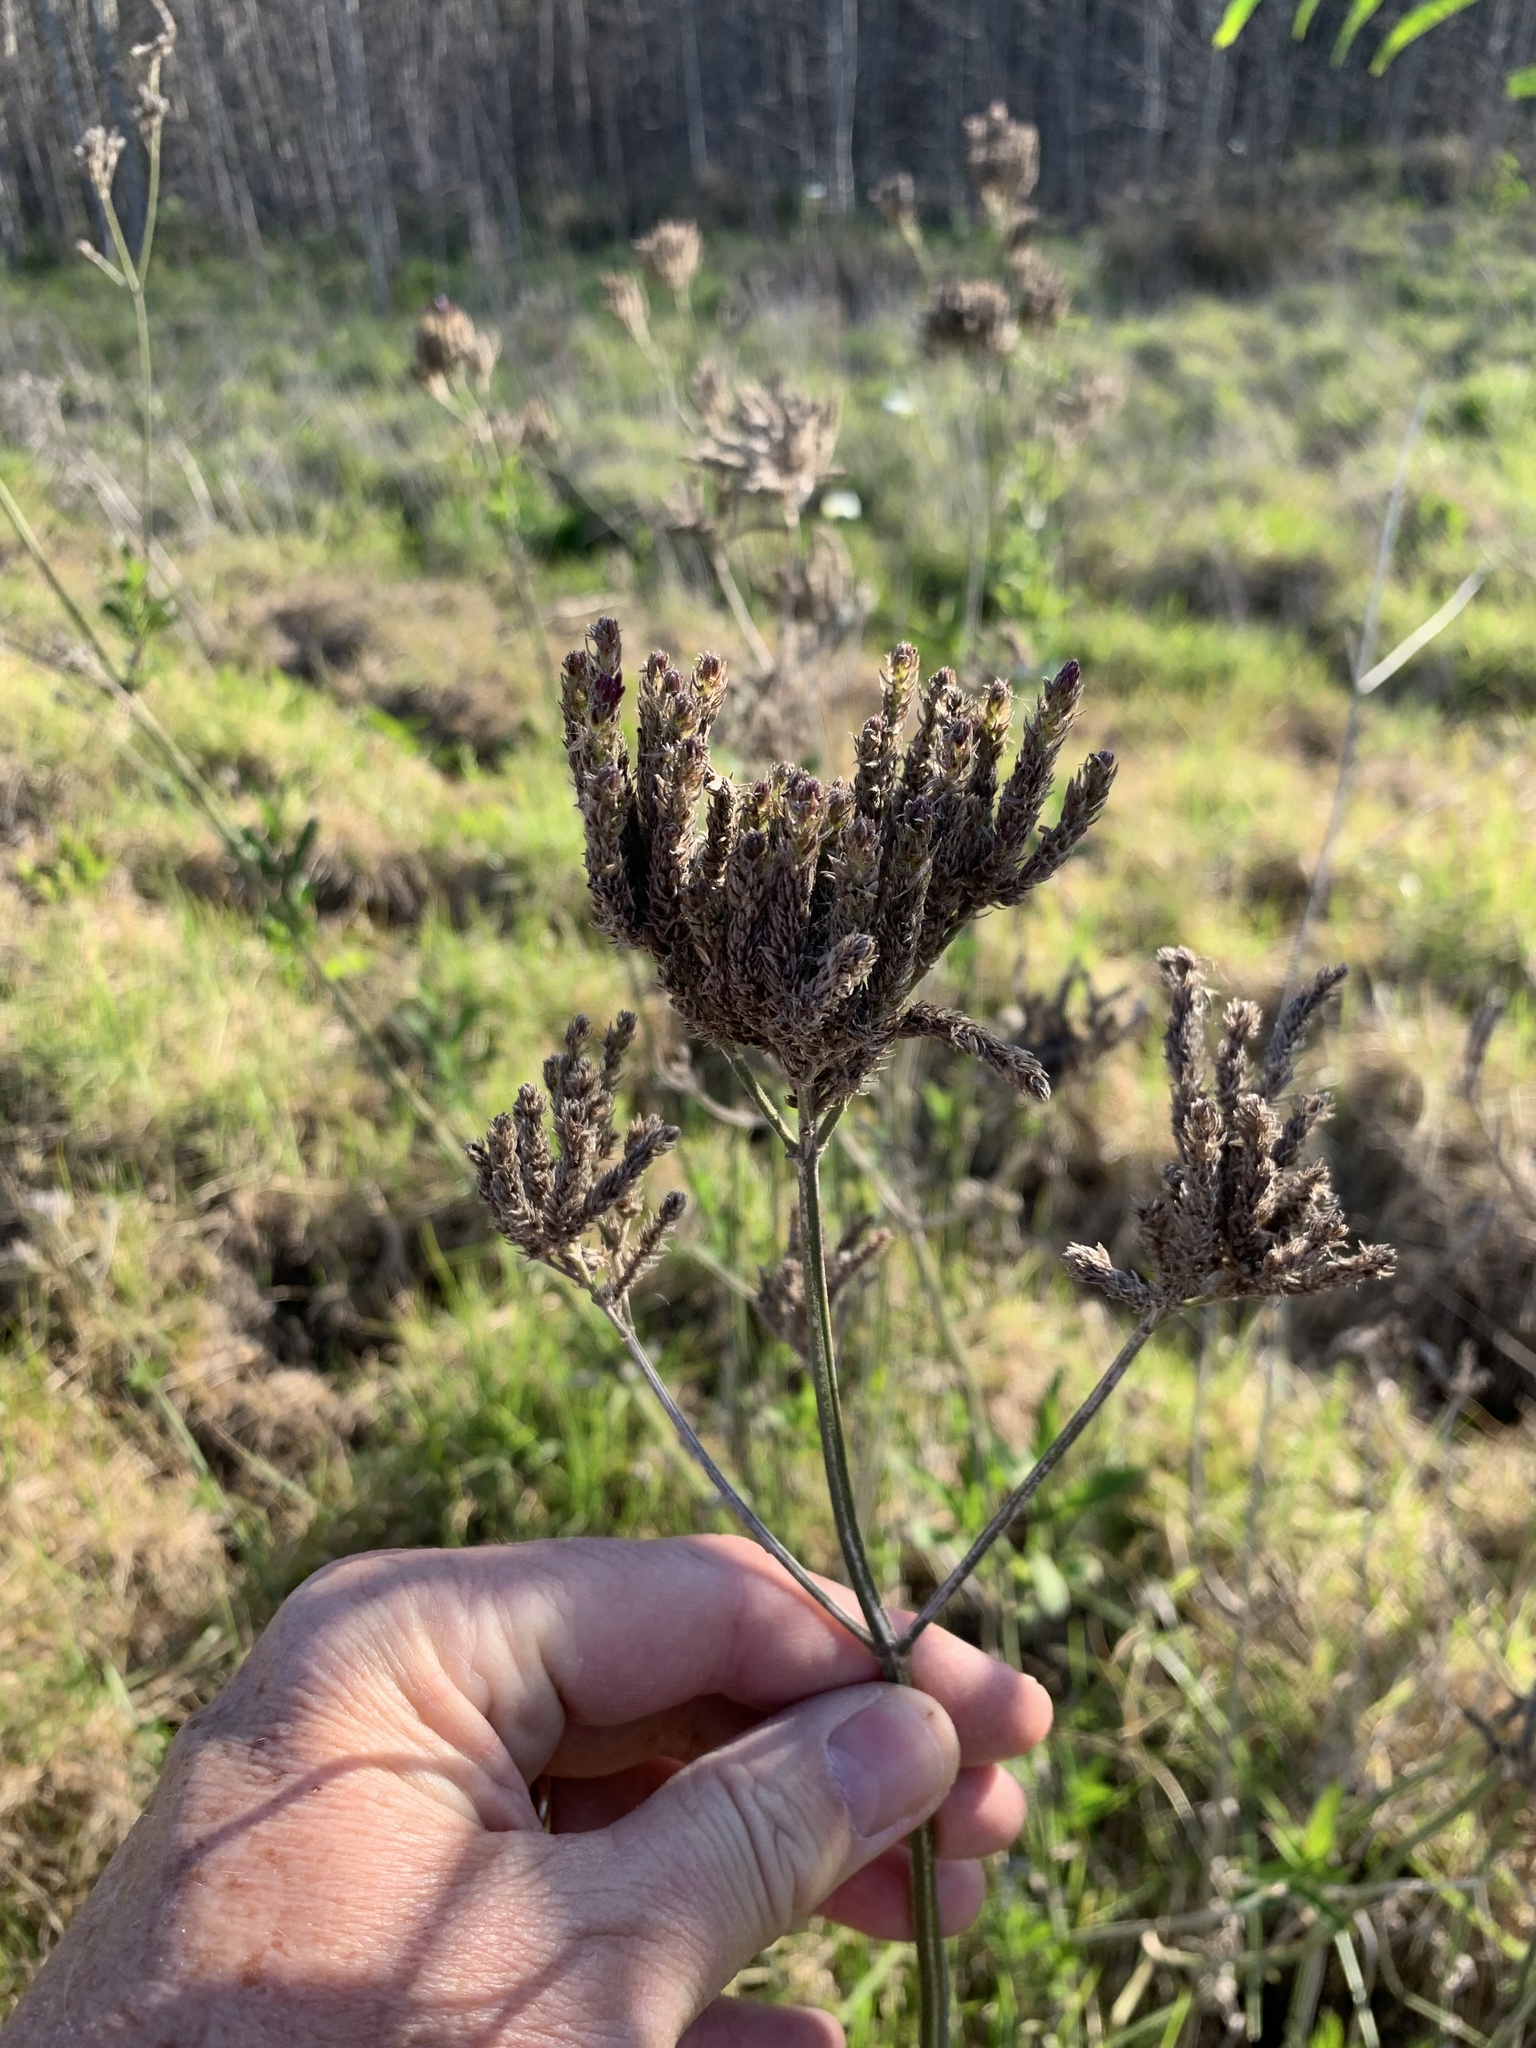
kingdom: Plantae
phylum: Tracheophyta
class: Magnoliopsida
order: Lamiales
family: Verbenaceae
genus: Verbena
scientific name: Verbena bonariensis
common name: Purpletop vervain
